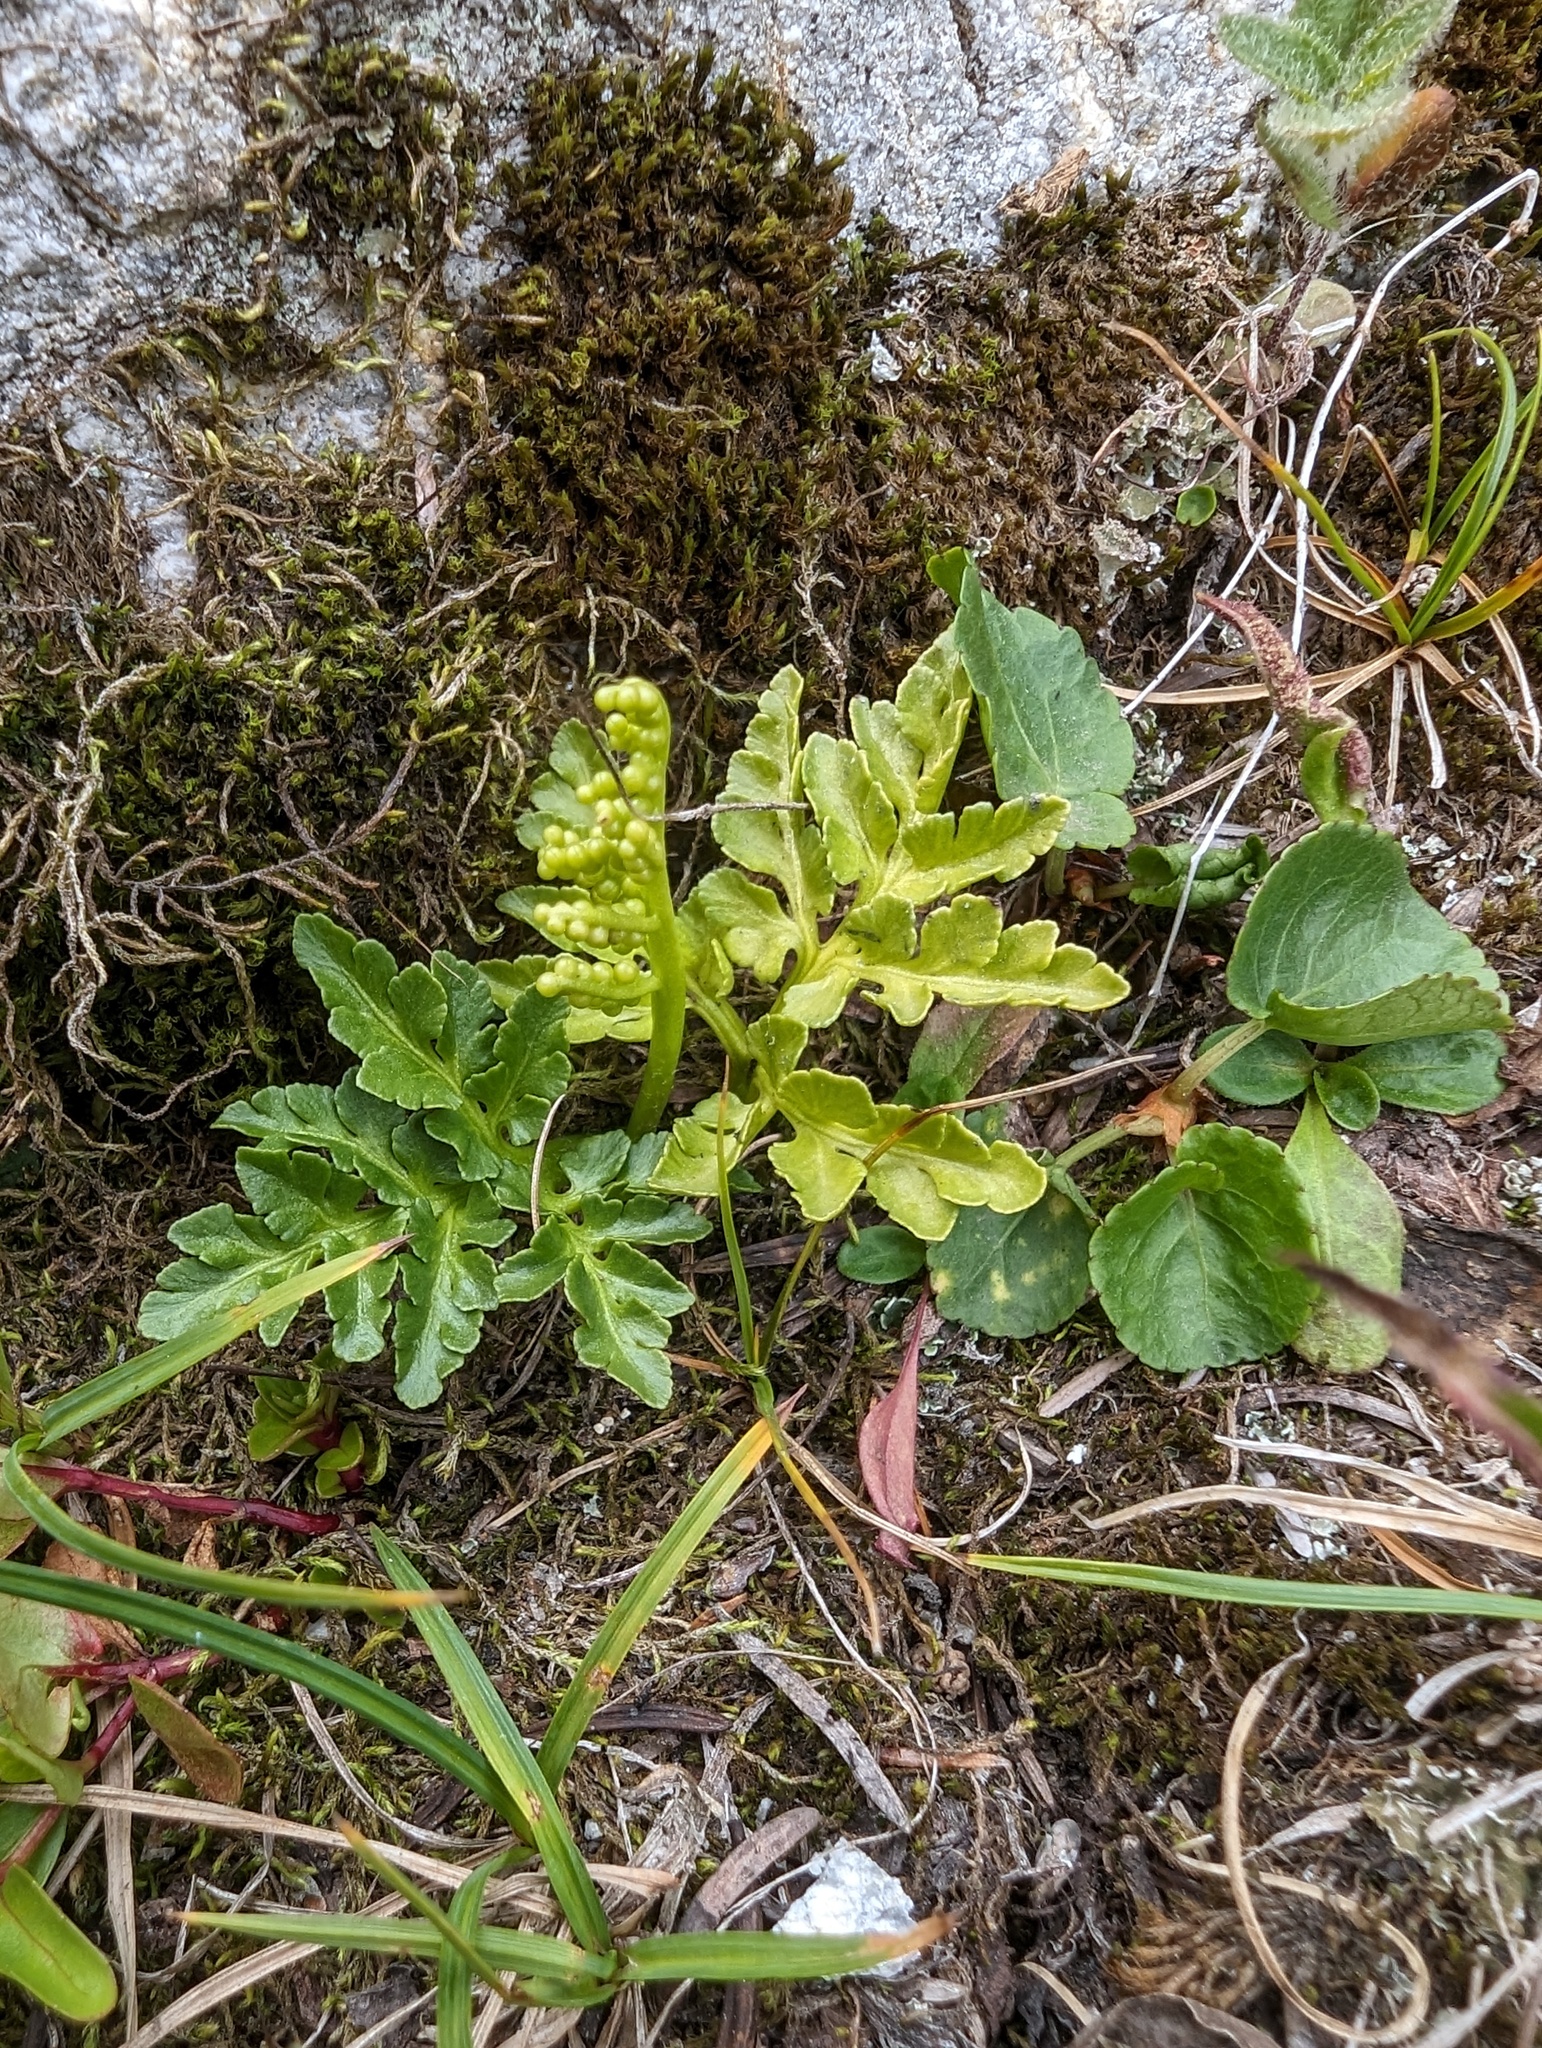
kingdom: Plantae
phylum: Tracheophyta
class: Polypodiopsida
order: Ophioglossales
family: Ophioglossaceae
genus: Sceptridium
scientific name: Sceptridium multifidum
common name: Leathery grape fern
